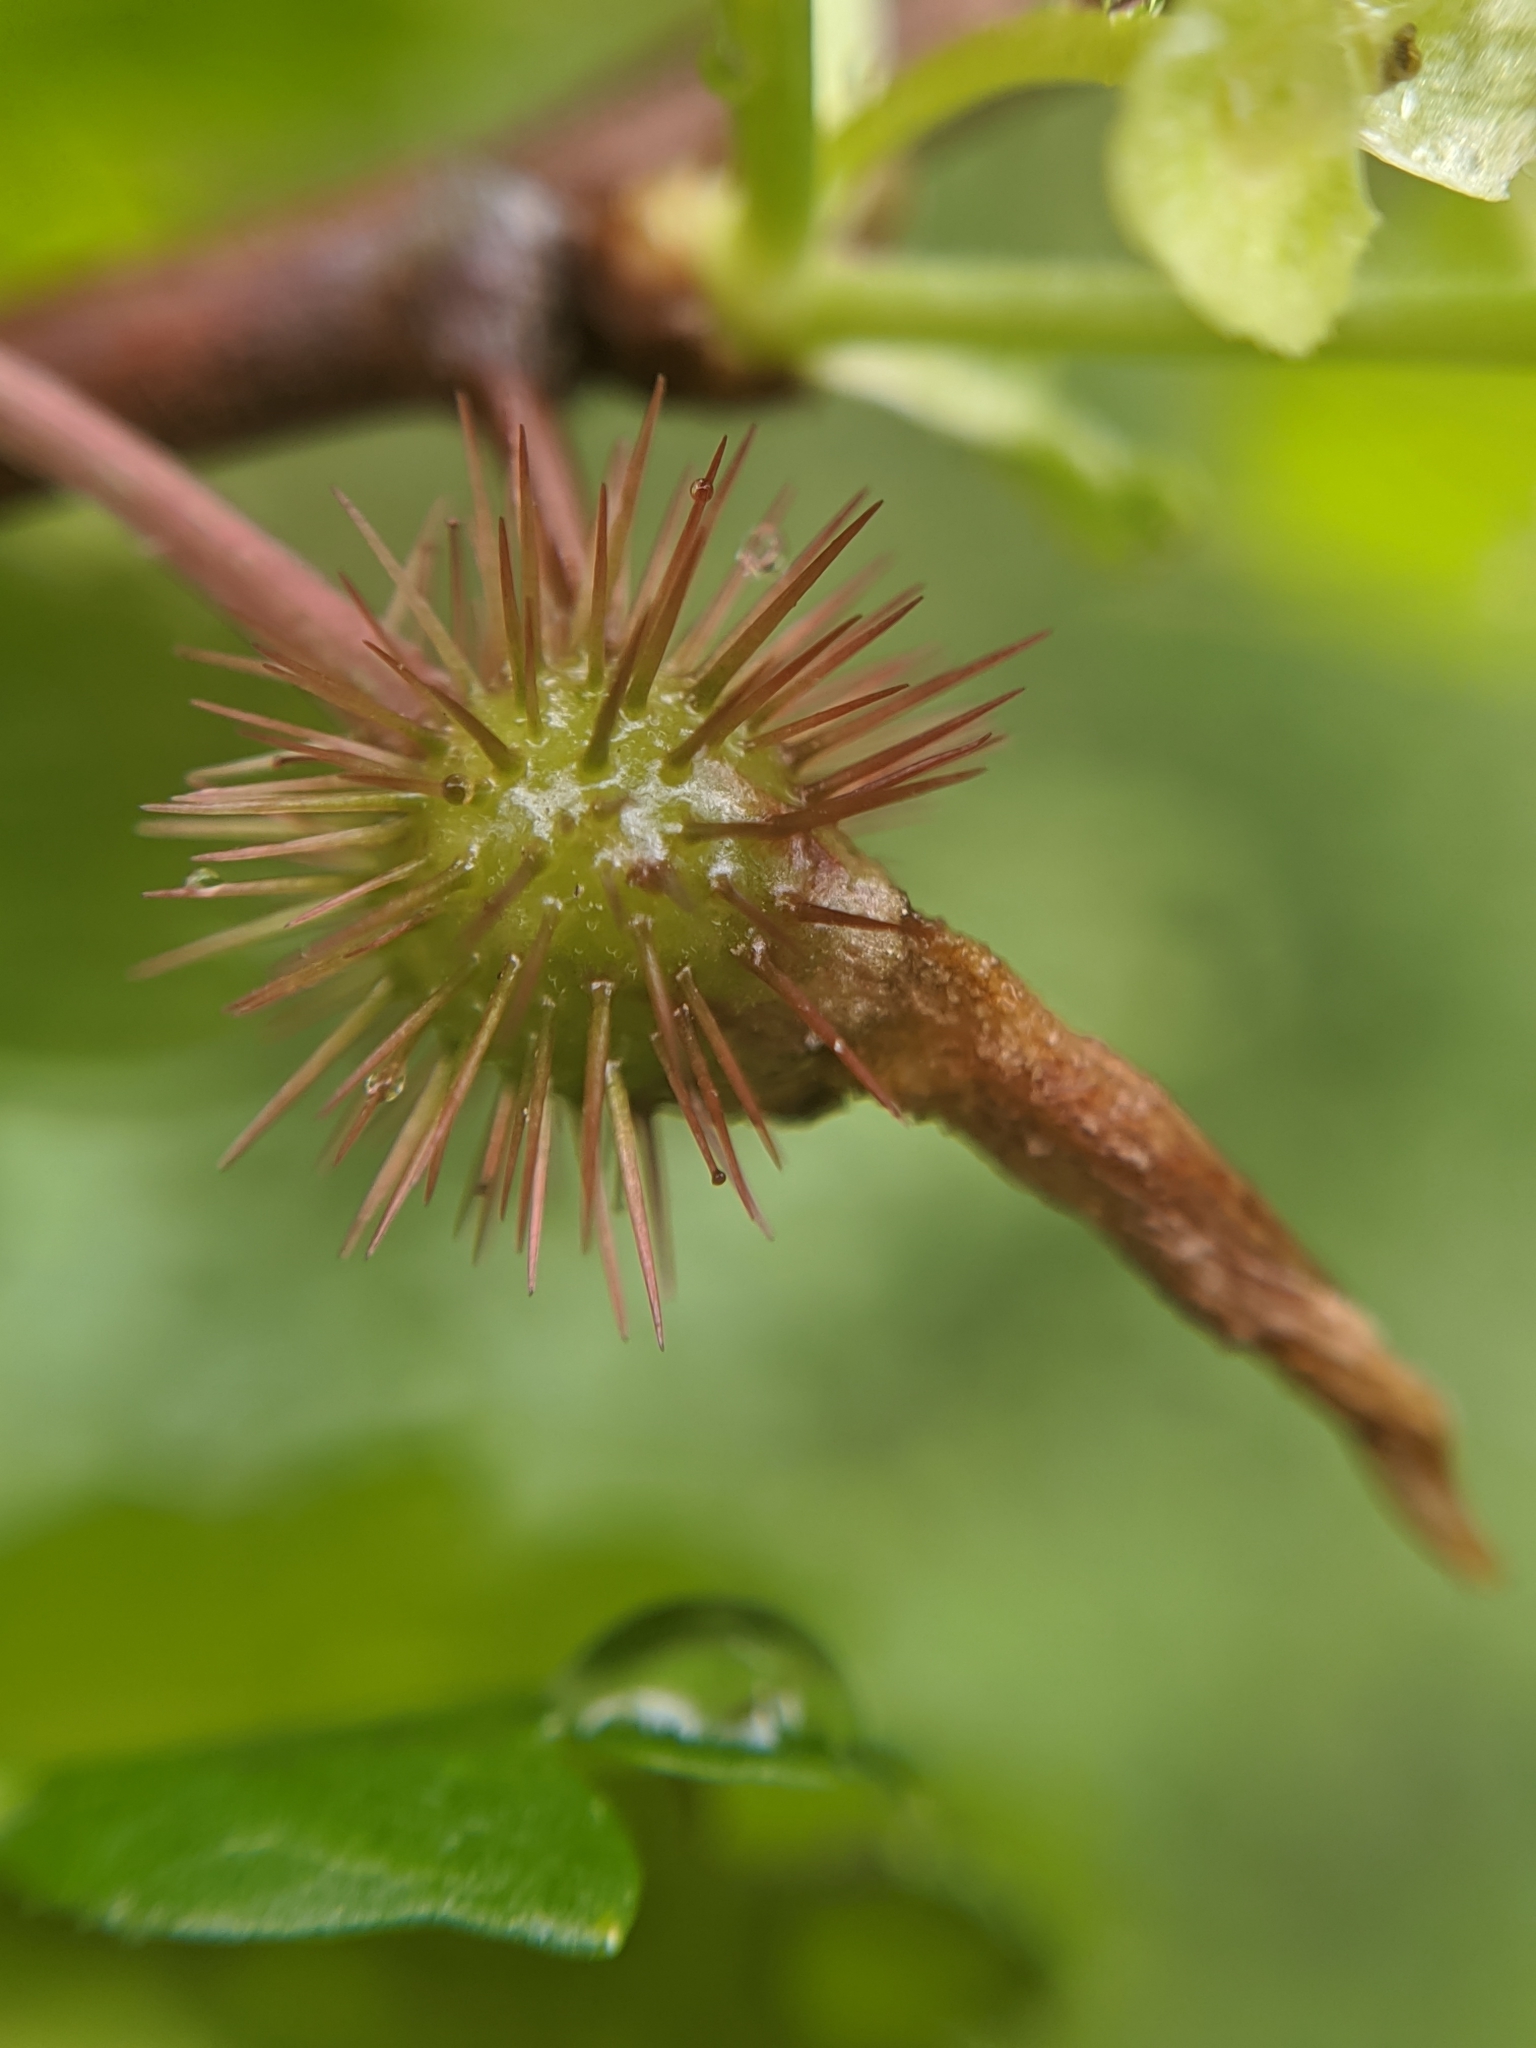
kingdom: Plantae
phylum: Tracheophyta
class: Magnoliopsida
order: Saxifragales
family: Grossulariaceae
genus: Ribes
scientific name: Ribes californicum
